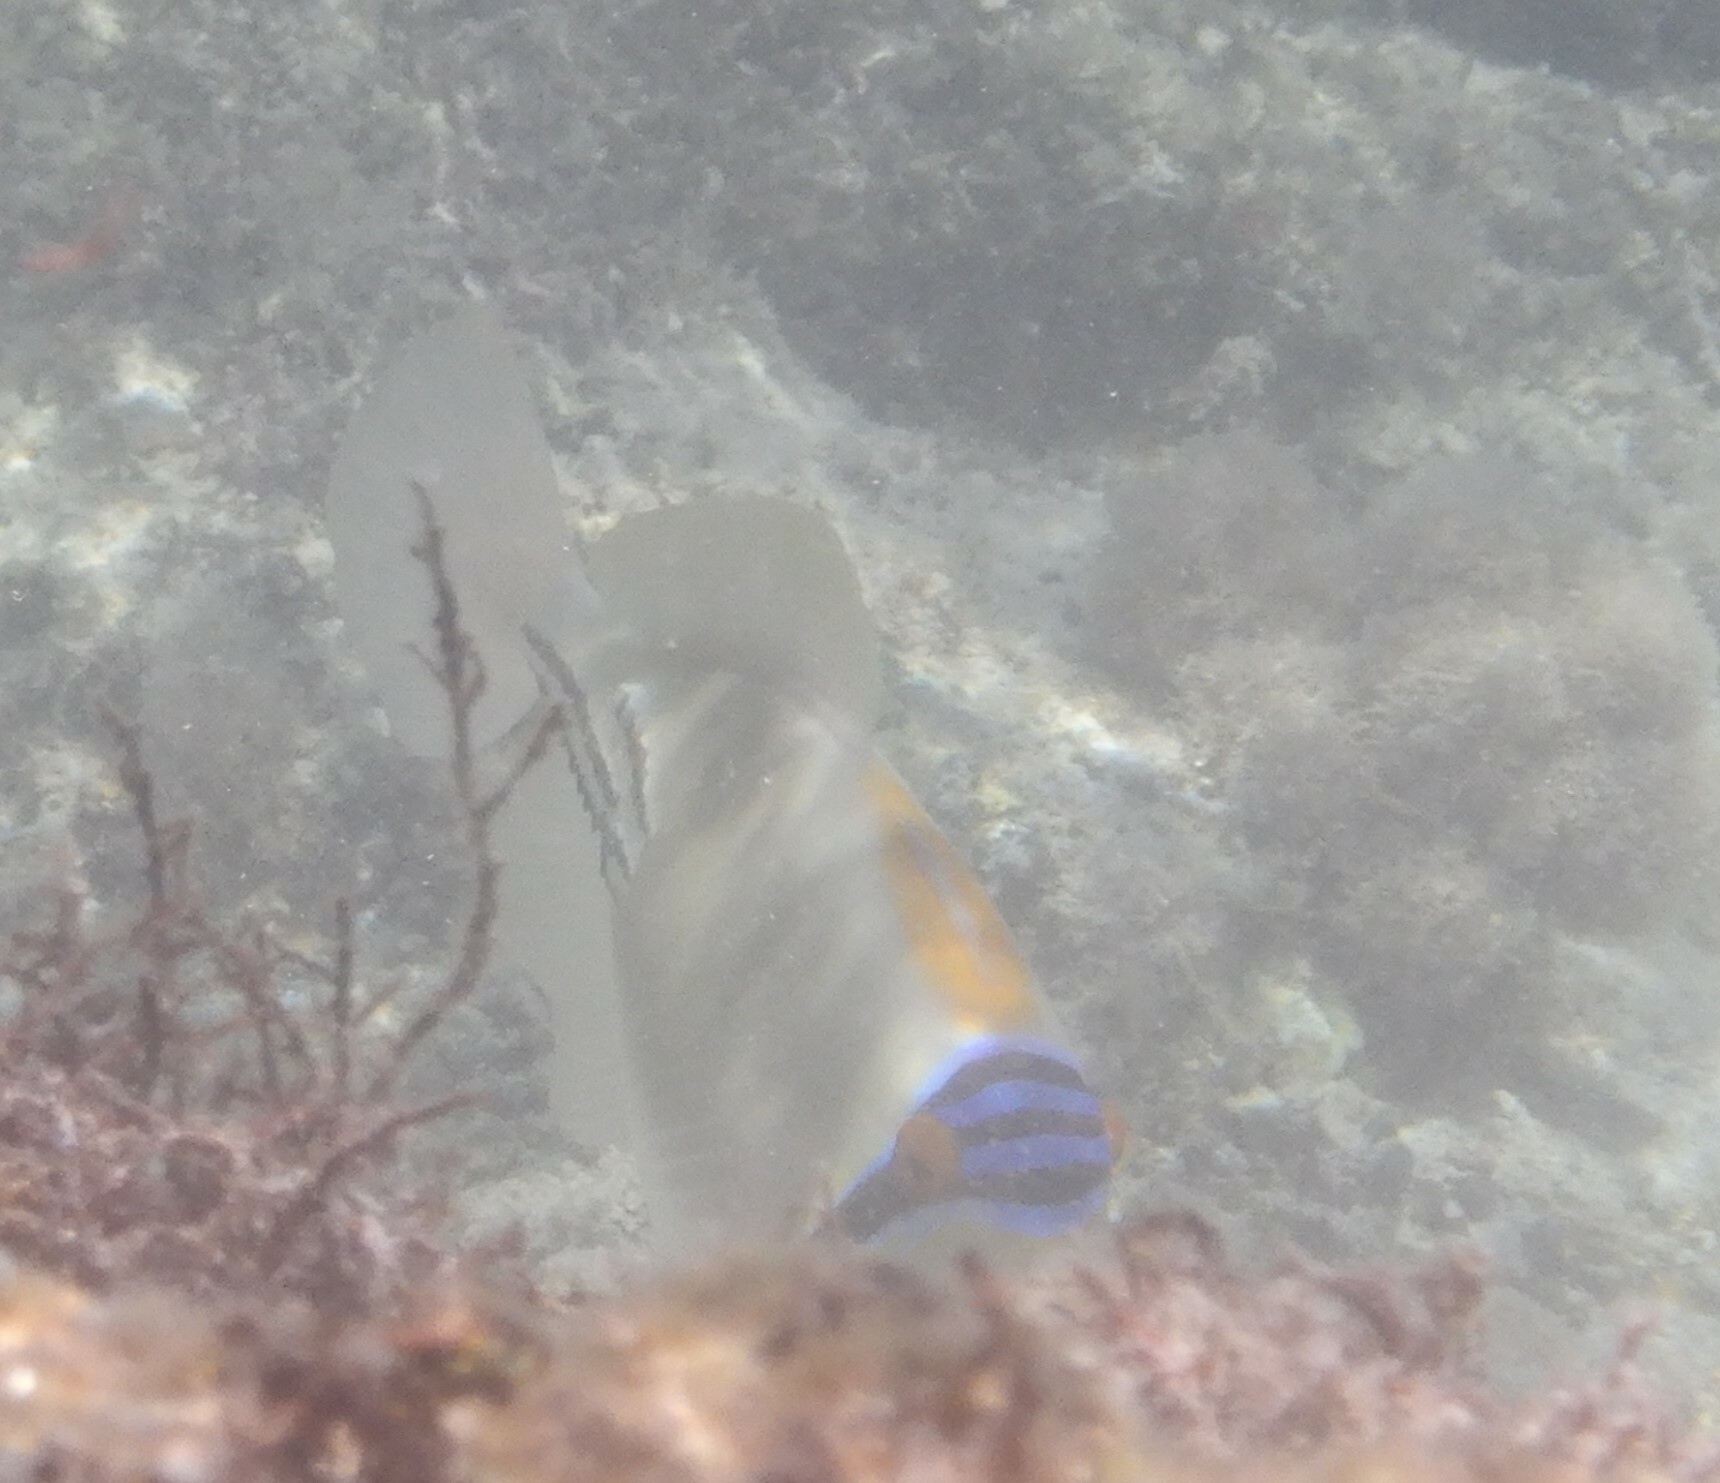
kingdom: Animalia
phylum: Chordata
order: Tetraodontiformes
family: Balistidae
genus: Rhinecanthus
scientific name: Rhinecanthus assasi
